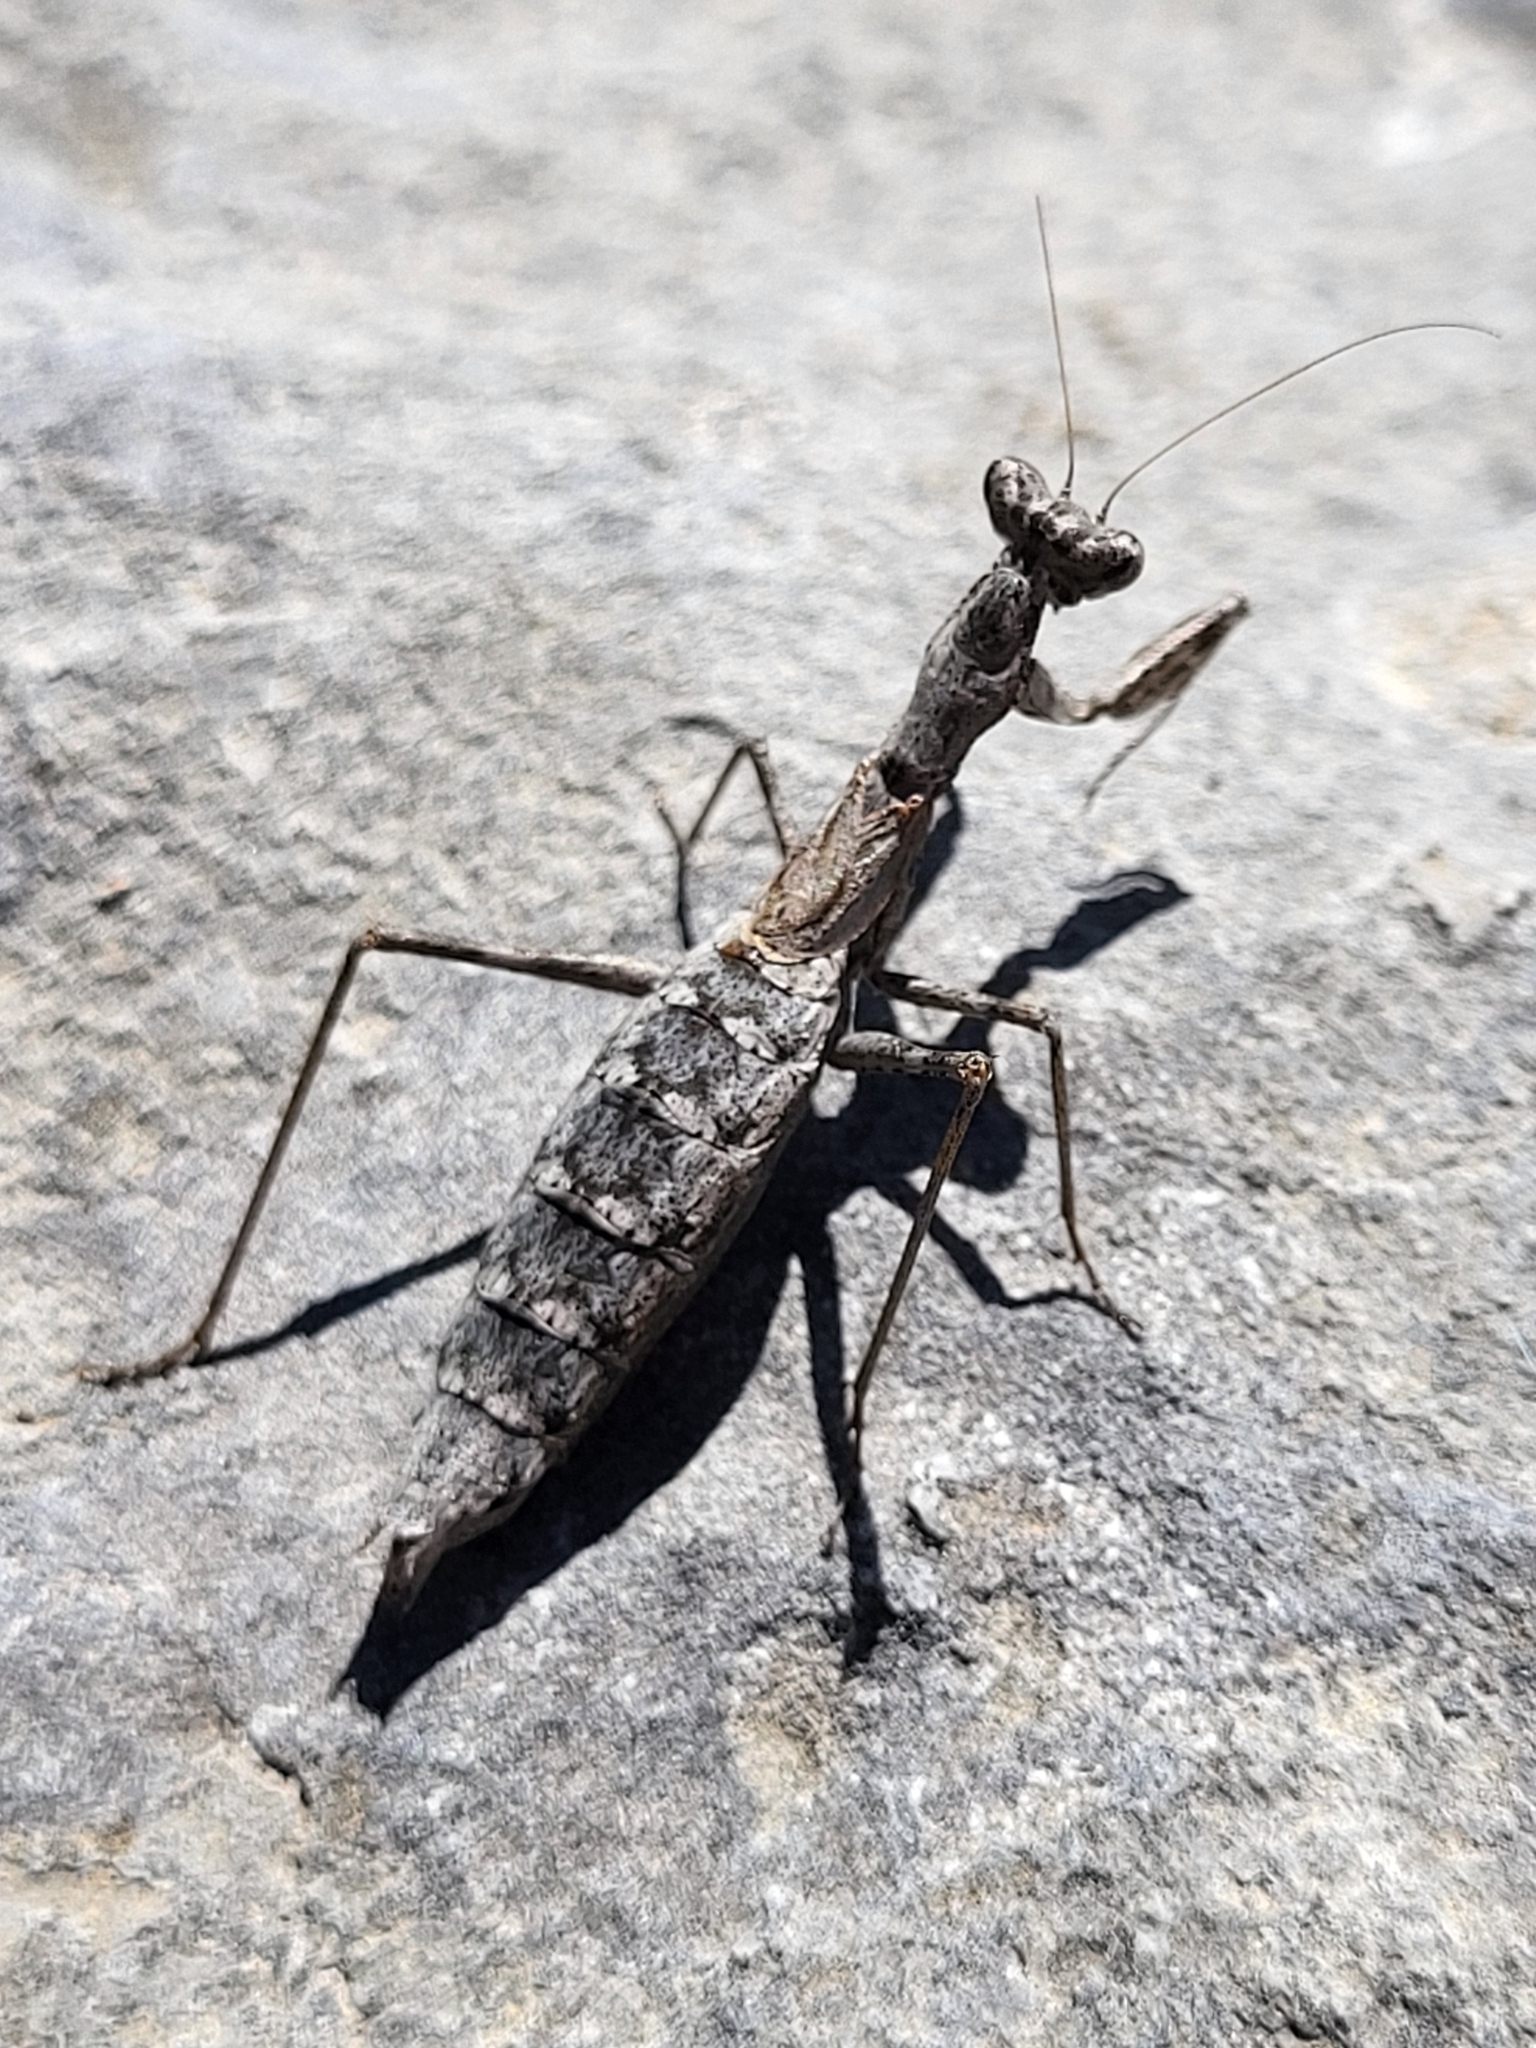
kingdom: Animalia
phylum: Arthropoda
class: Insecta
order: Mantodea
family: Amelidae
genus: Ameles
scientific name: Ameles decolor
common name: Dwarf mantis
